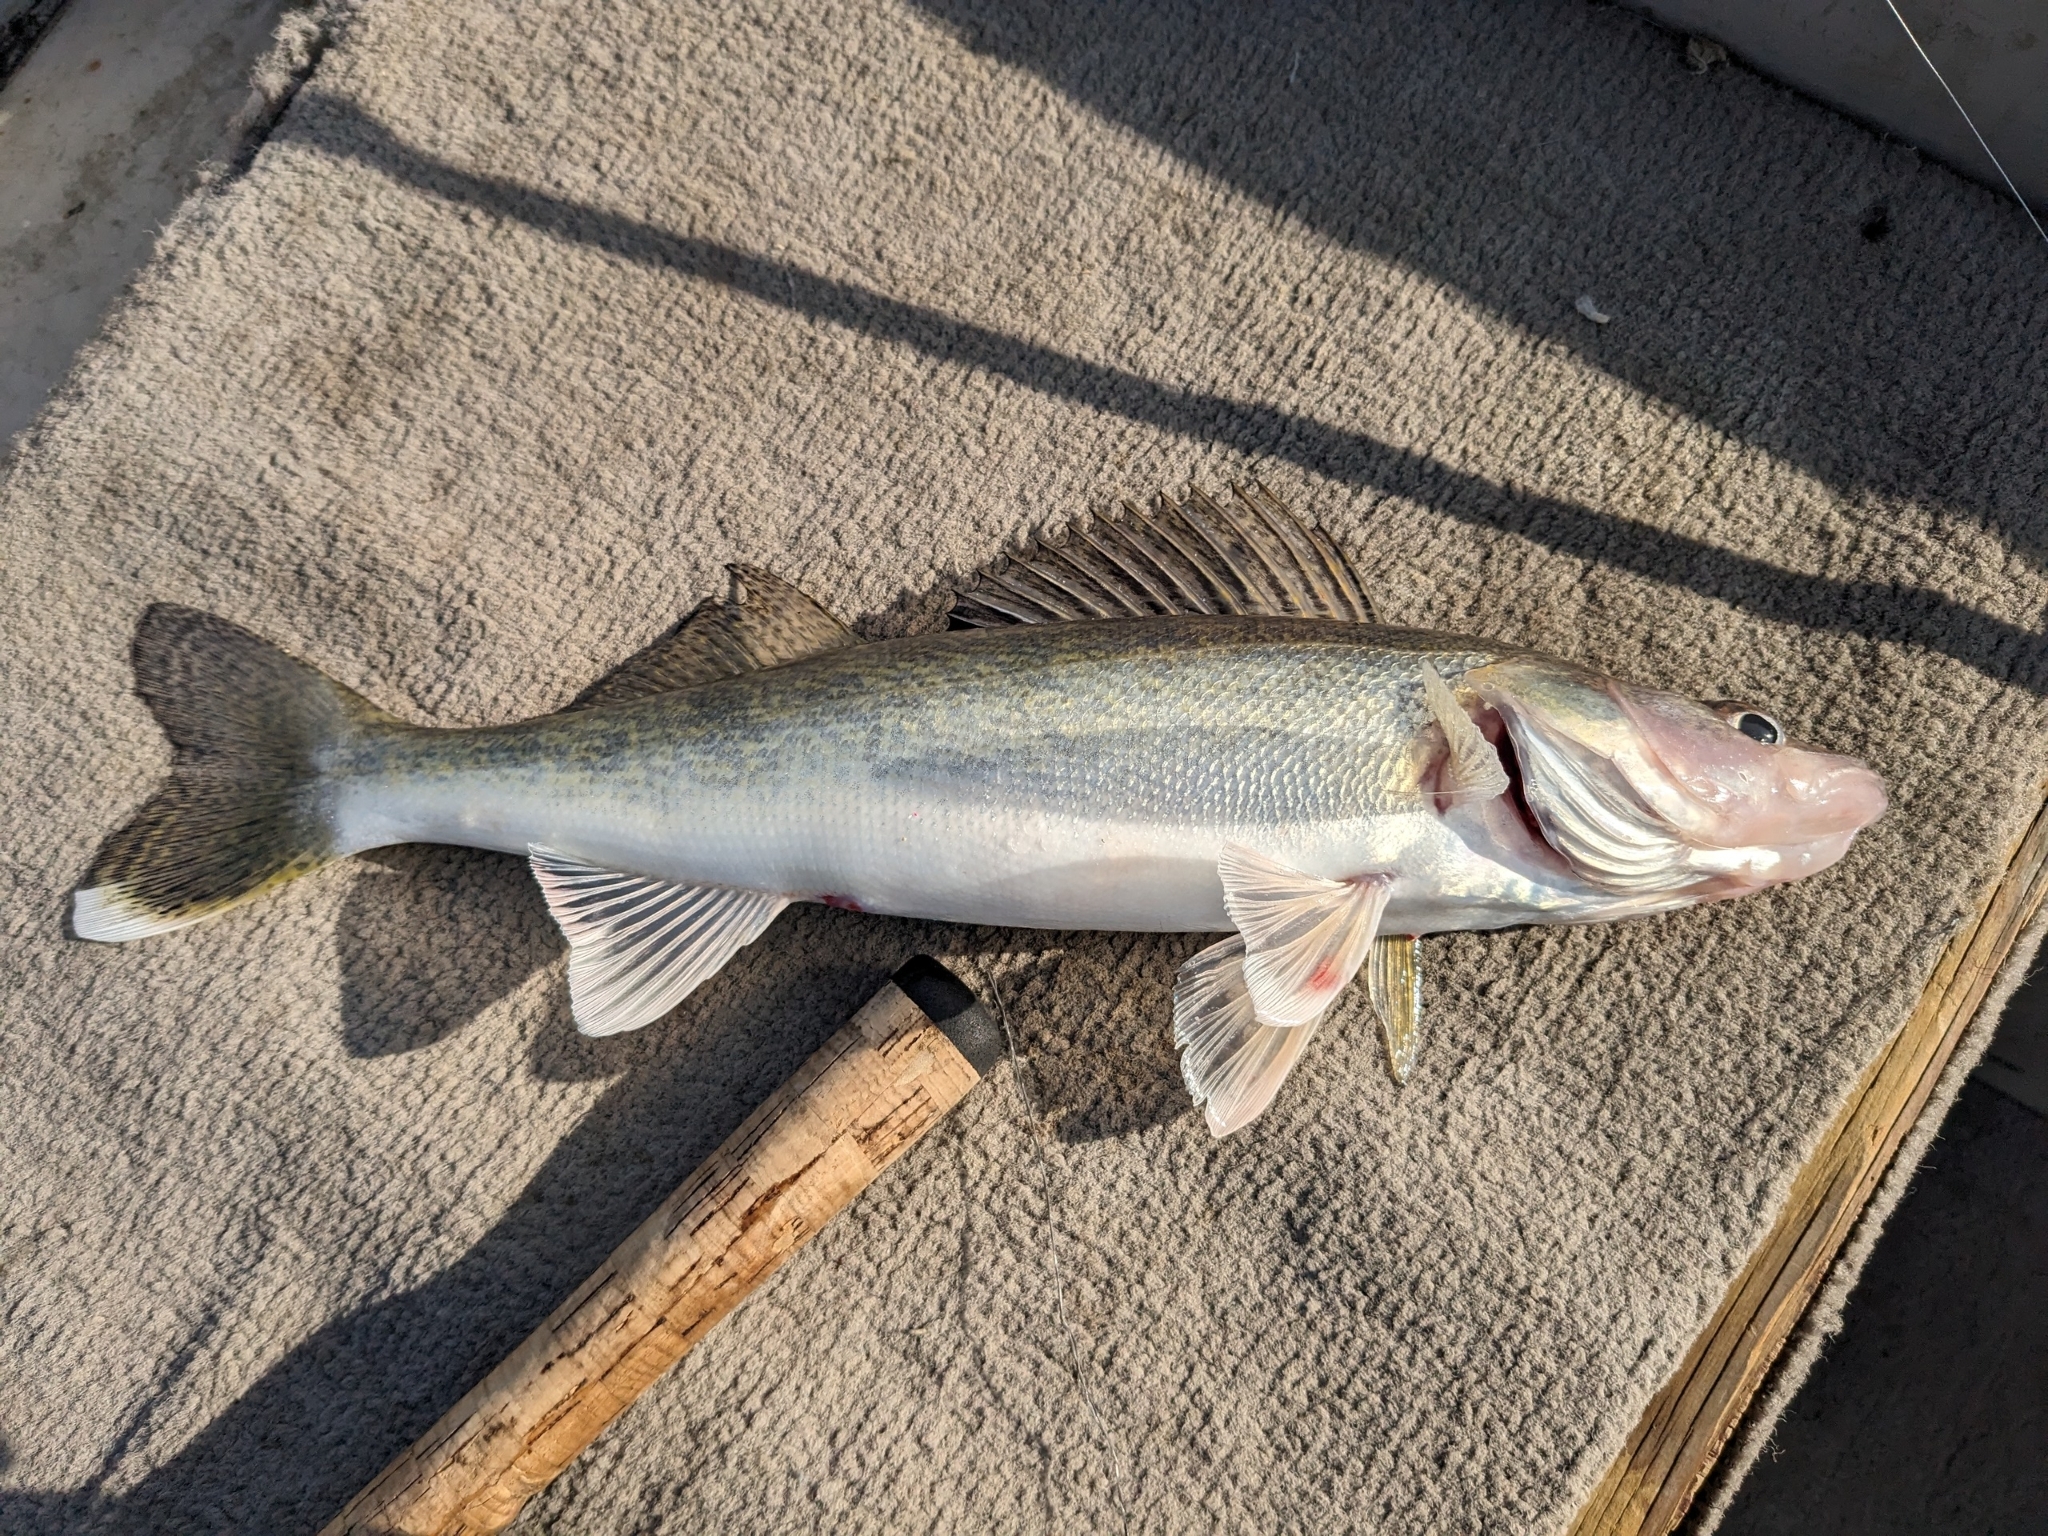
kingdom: Animalia
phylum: Chordata
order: Perciformes
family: Percidae
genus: Sander
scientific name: Sander vitreus
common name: Walleye
